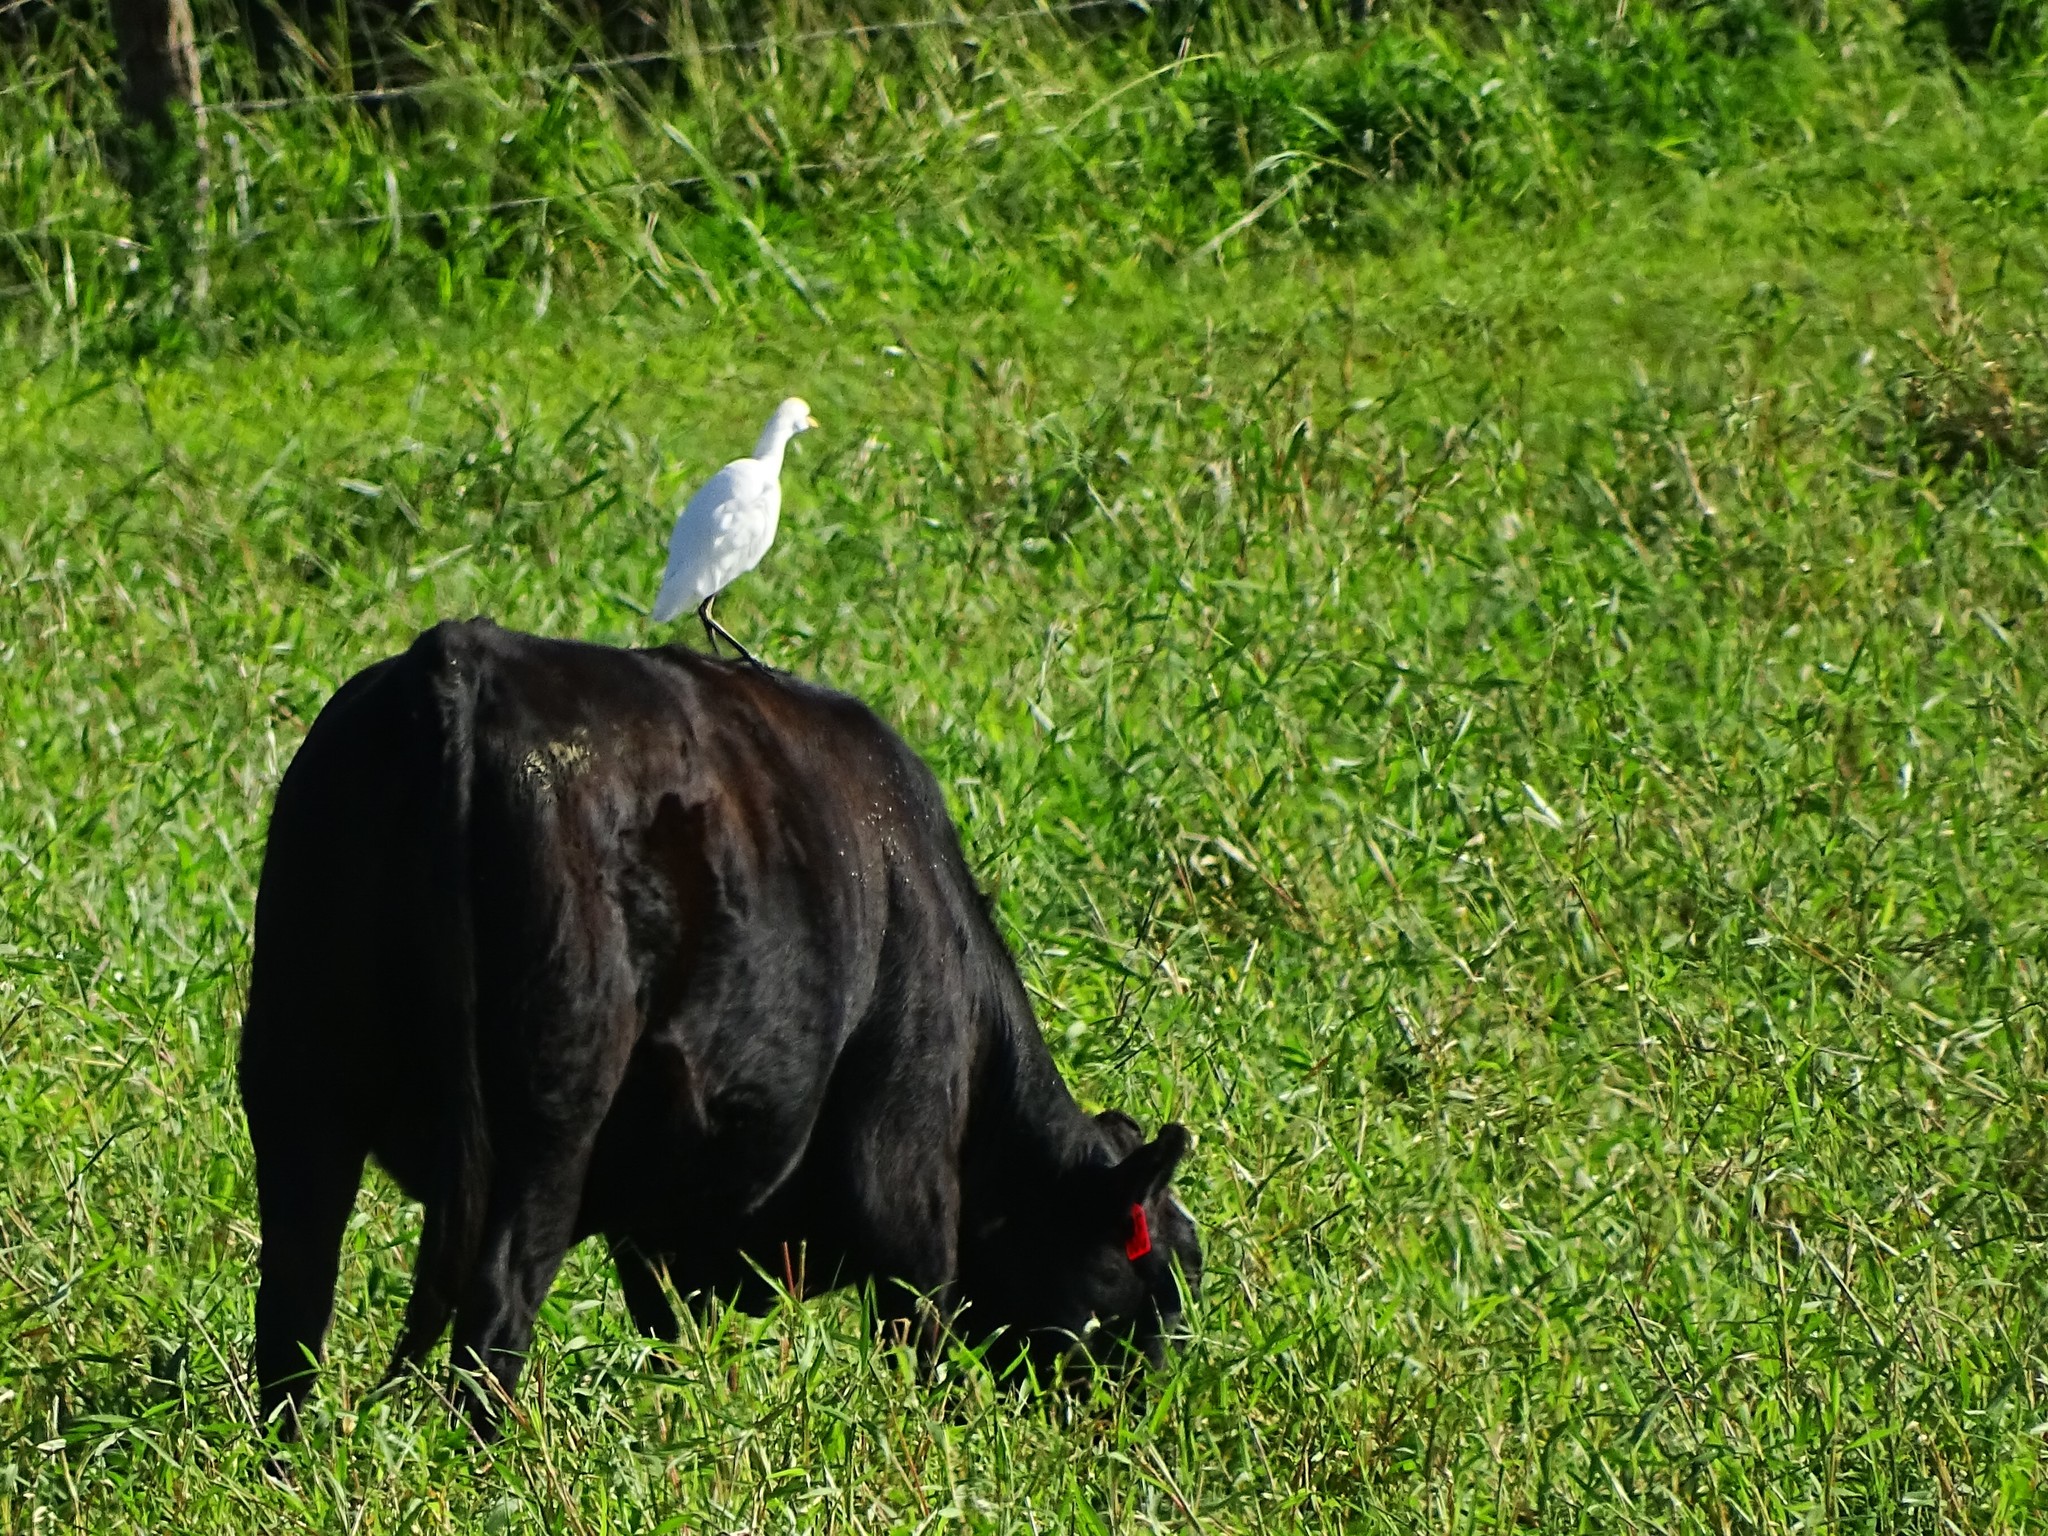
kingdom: Animalia
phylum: Chordata
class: Aves
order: Pelecaniformes
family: Ardeidae
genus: Bubulcus
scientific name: Bubulcus ibis
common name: Cattle egret
